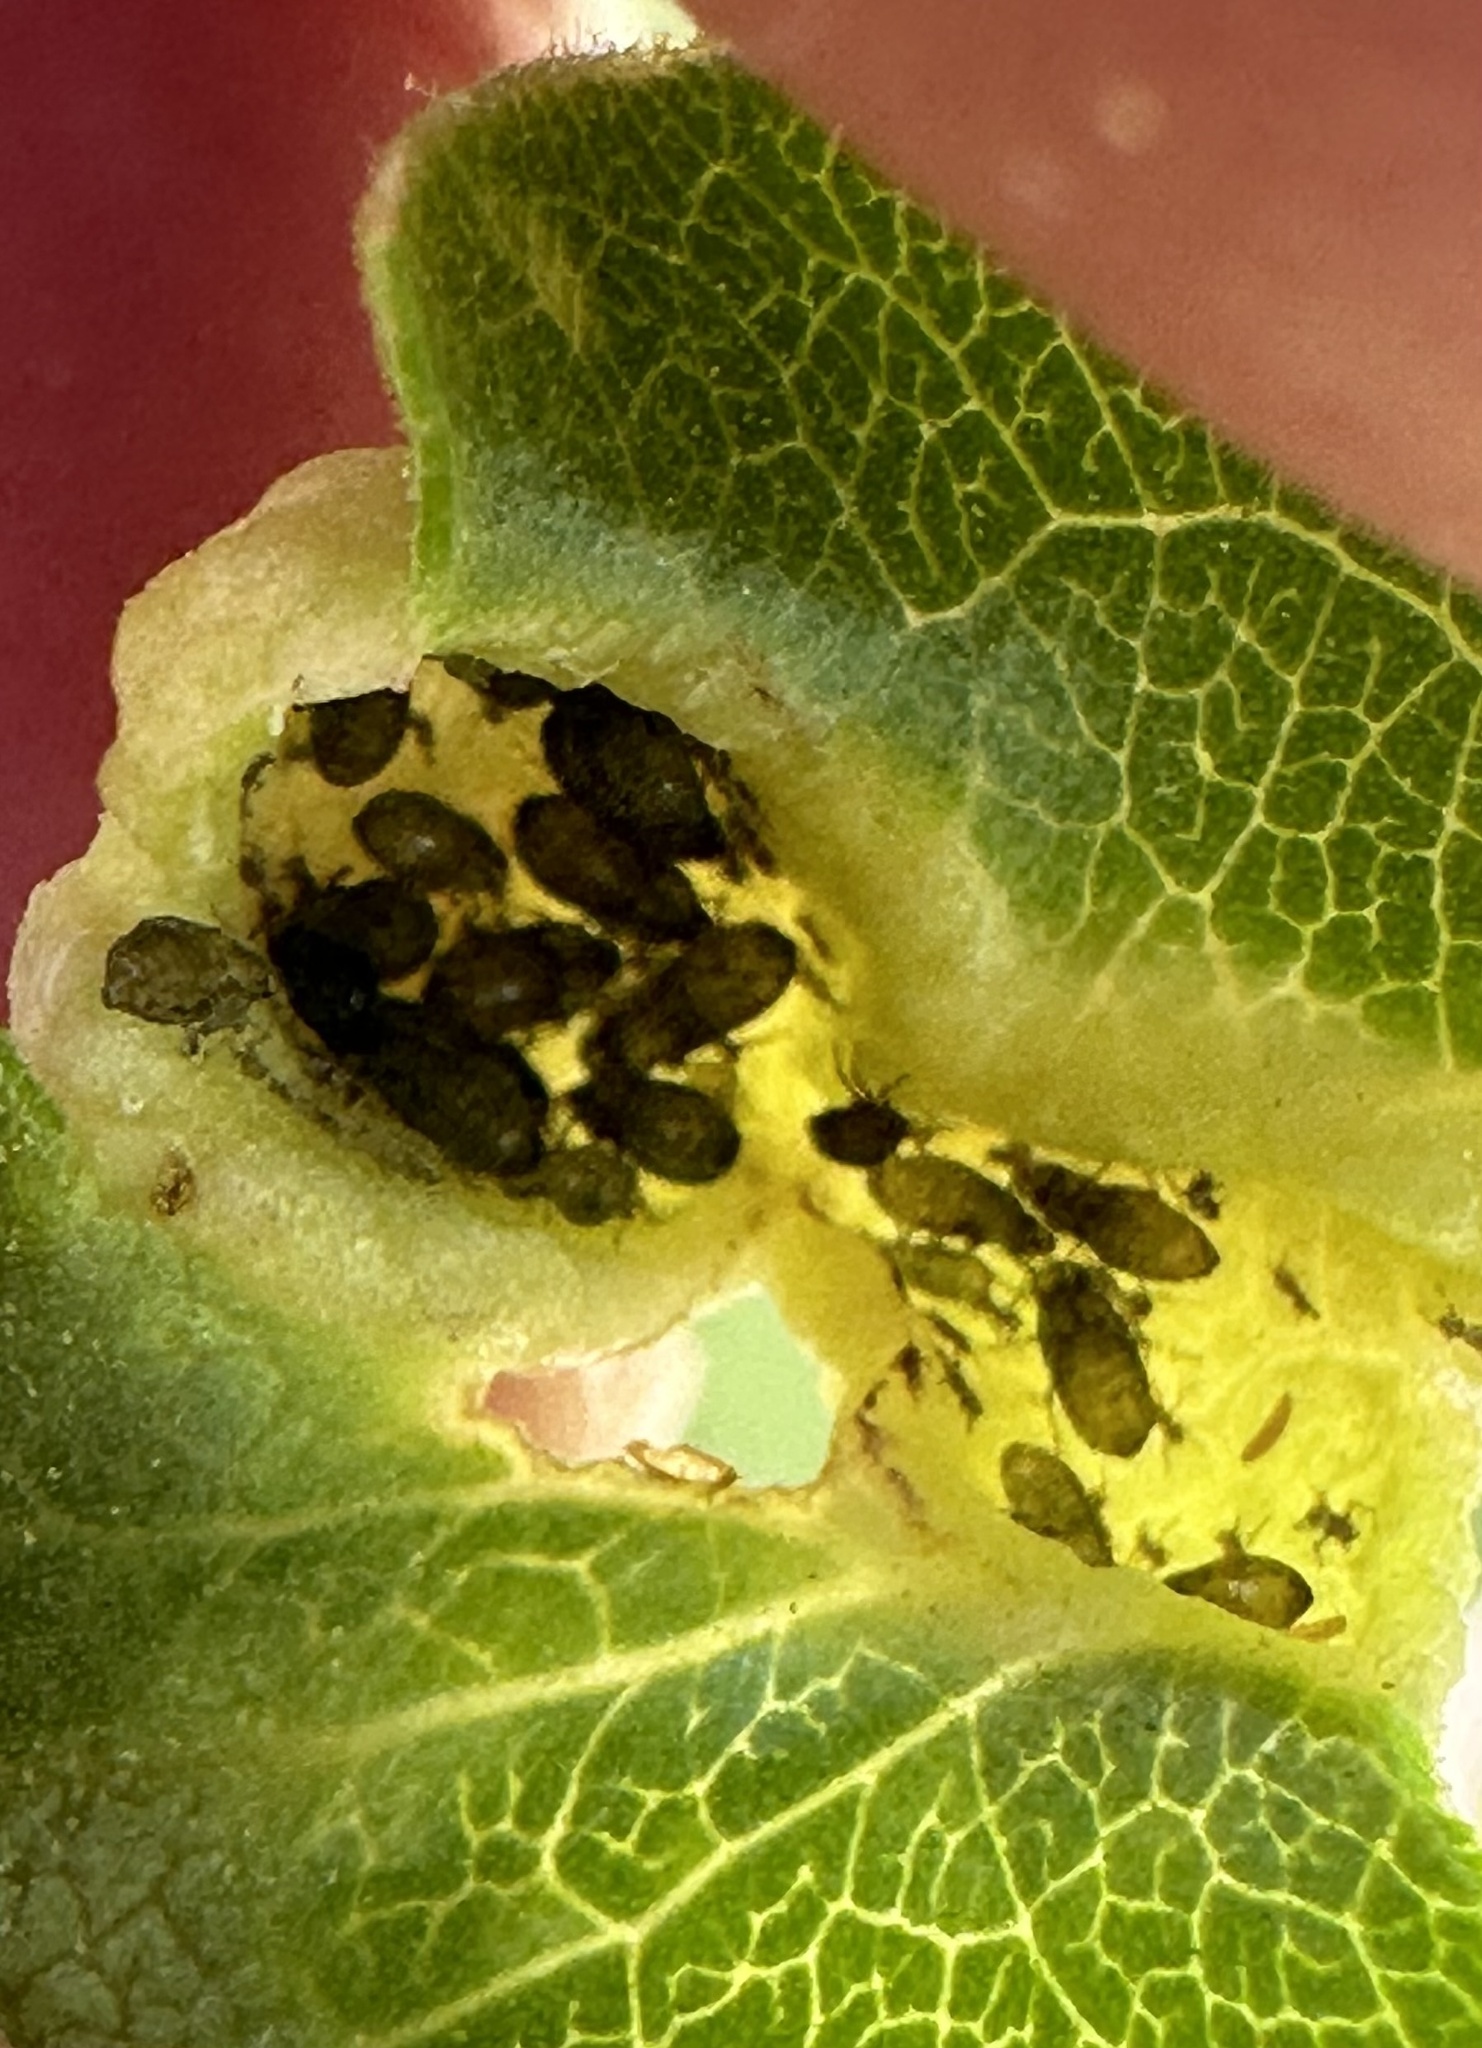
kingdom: Animalia
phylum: Arthropoda
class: Insecta
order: Hemiptera
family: Aphididae
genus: Tamalia
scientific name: Tamalia coweni
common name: Manzanita leafgall aphid
